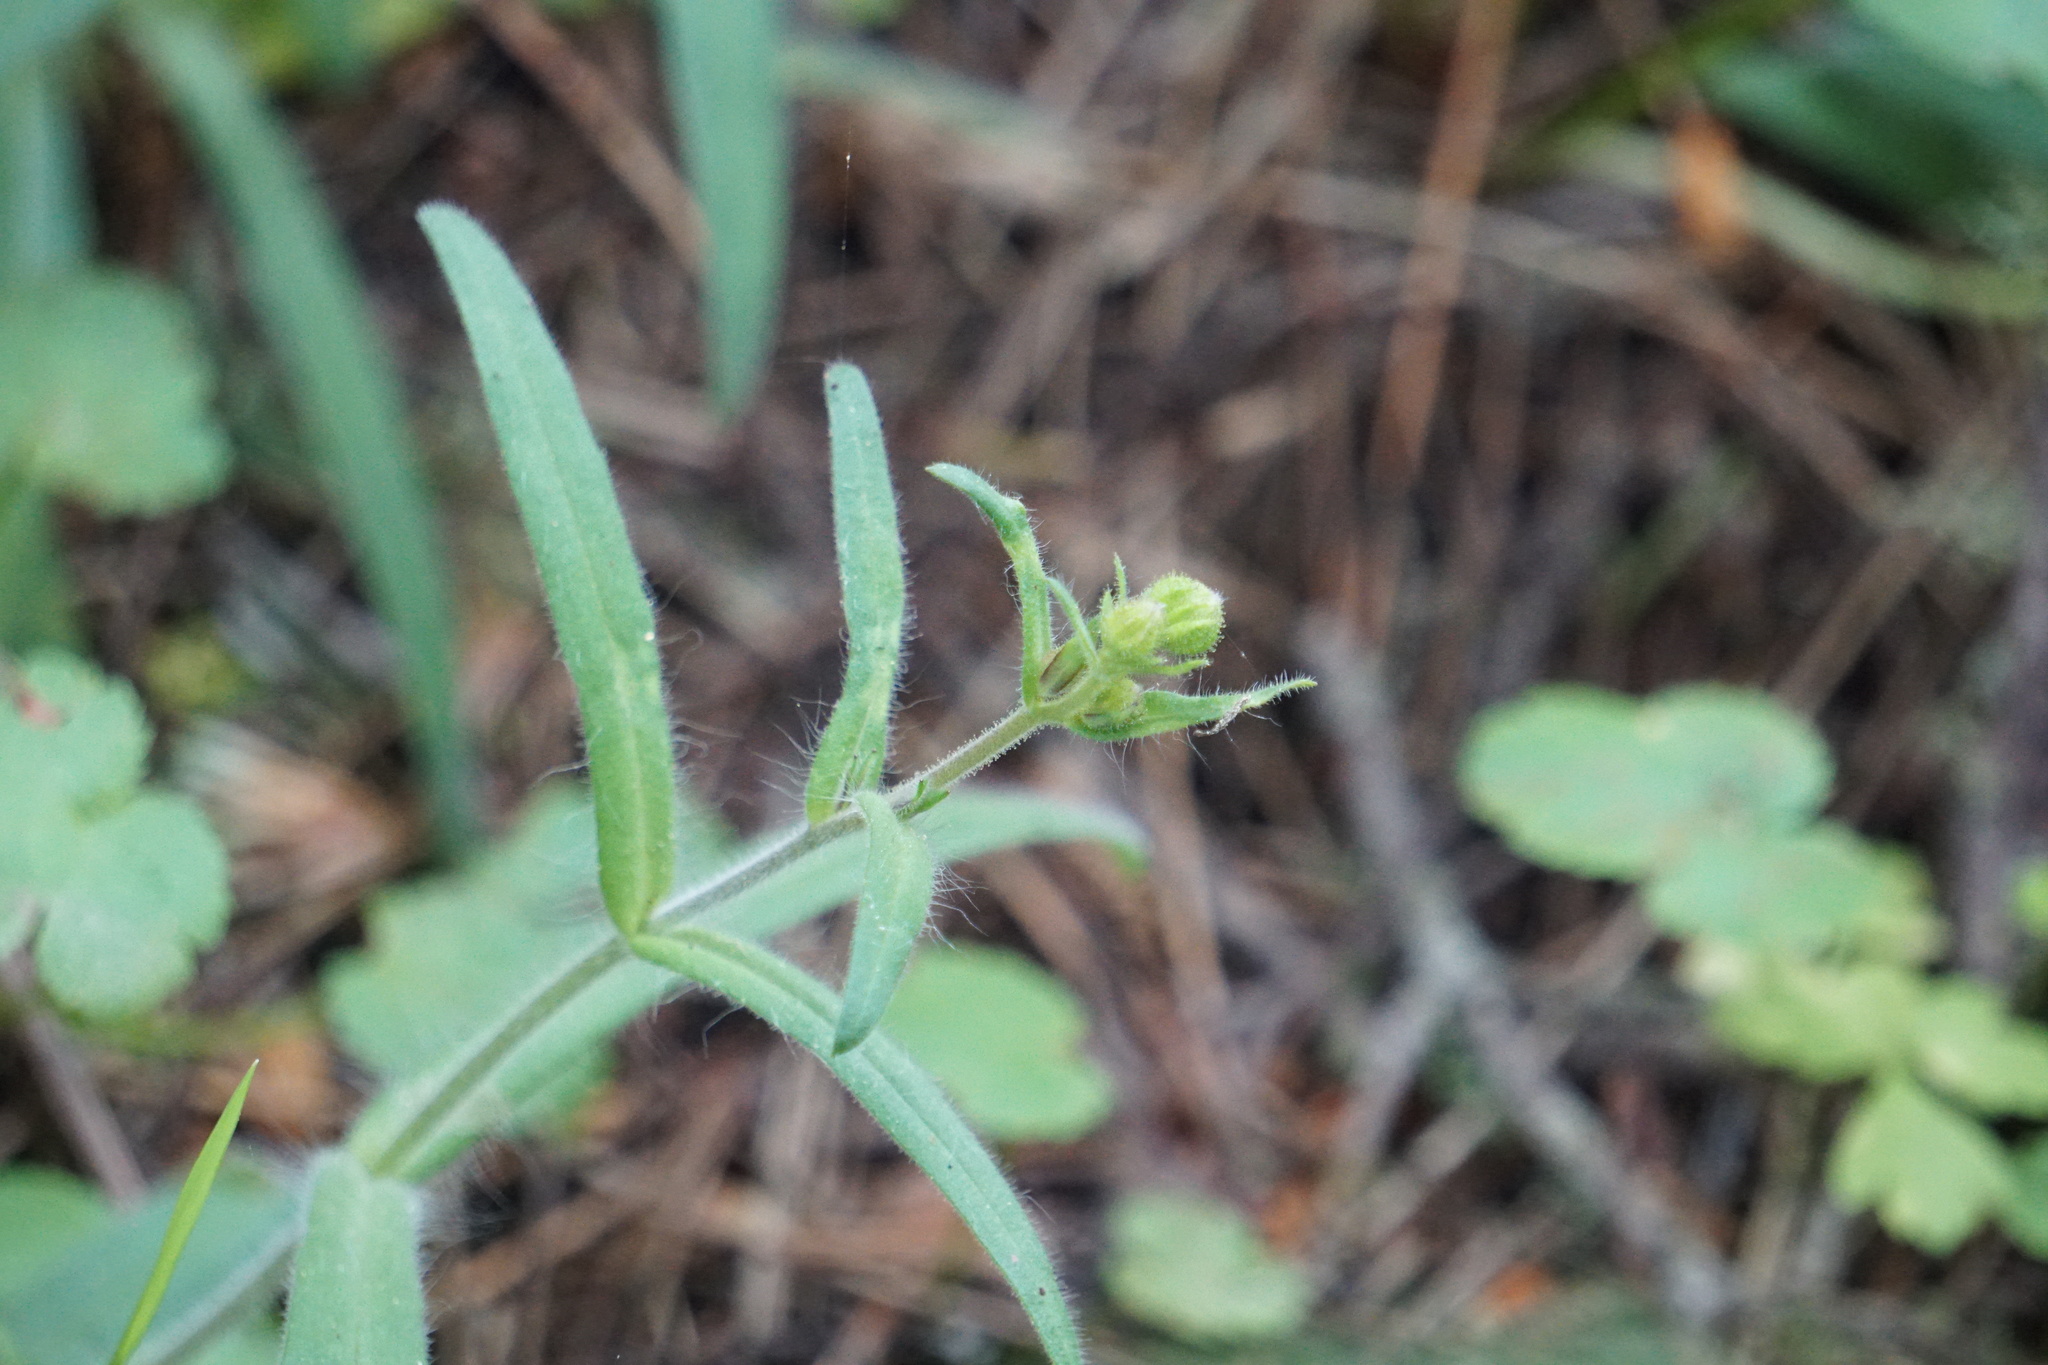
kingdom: Plantae
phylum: Tracheophyta
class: Magnoliopsida
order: Asterales
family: Asteraceae
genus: Anisocarpus
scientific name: Anisocarpus madioides
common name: Woodland madia
